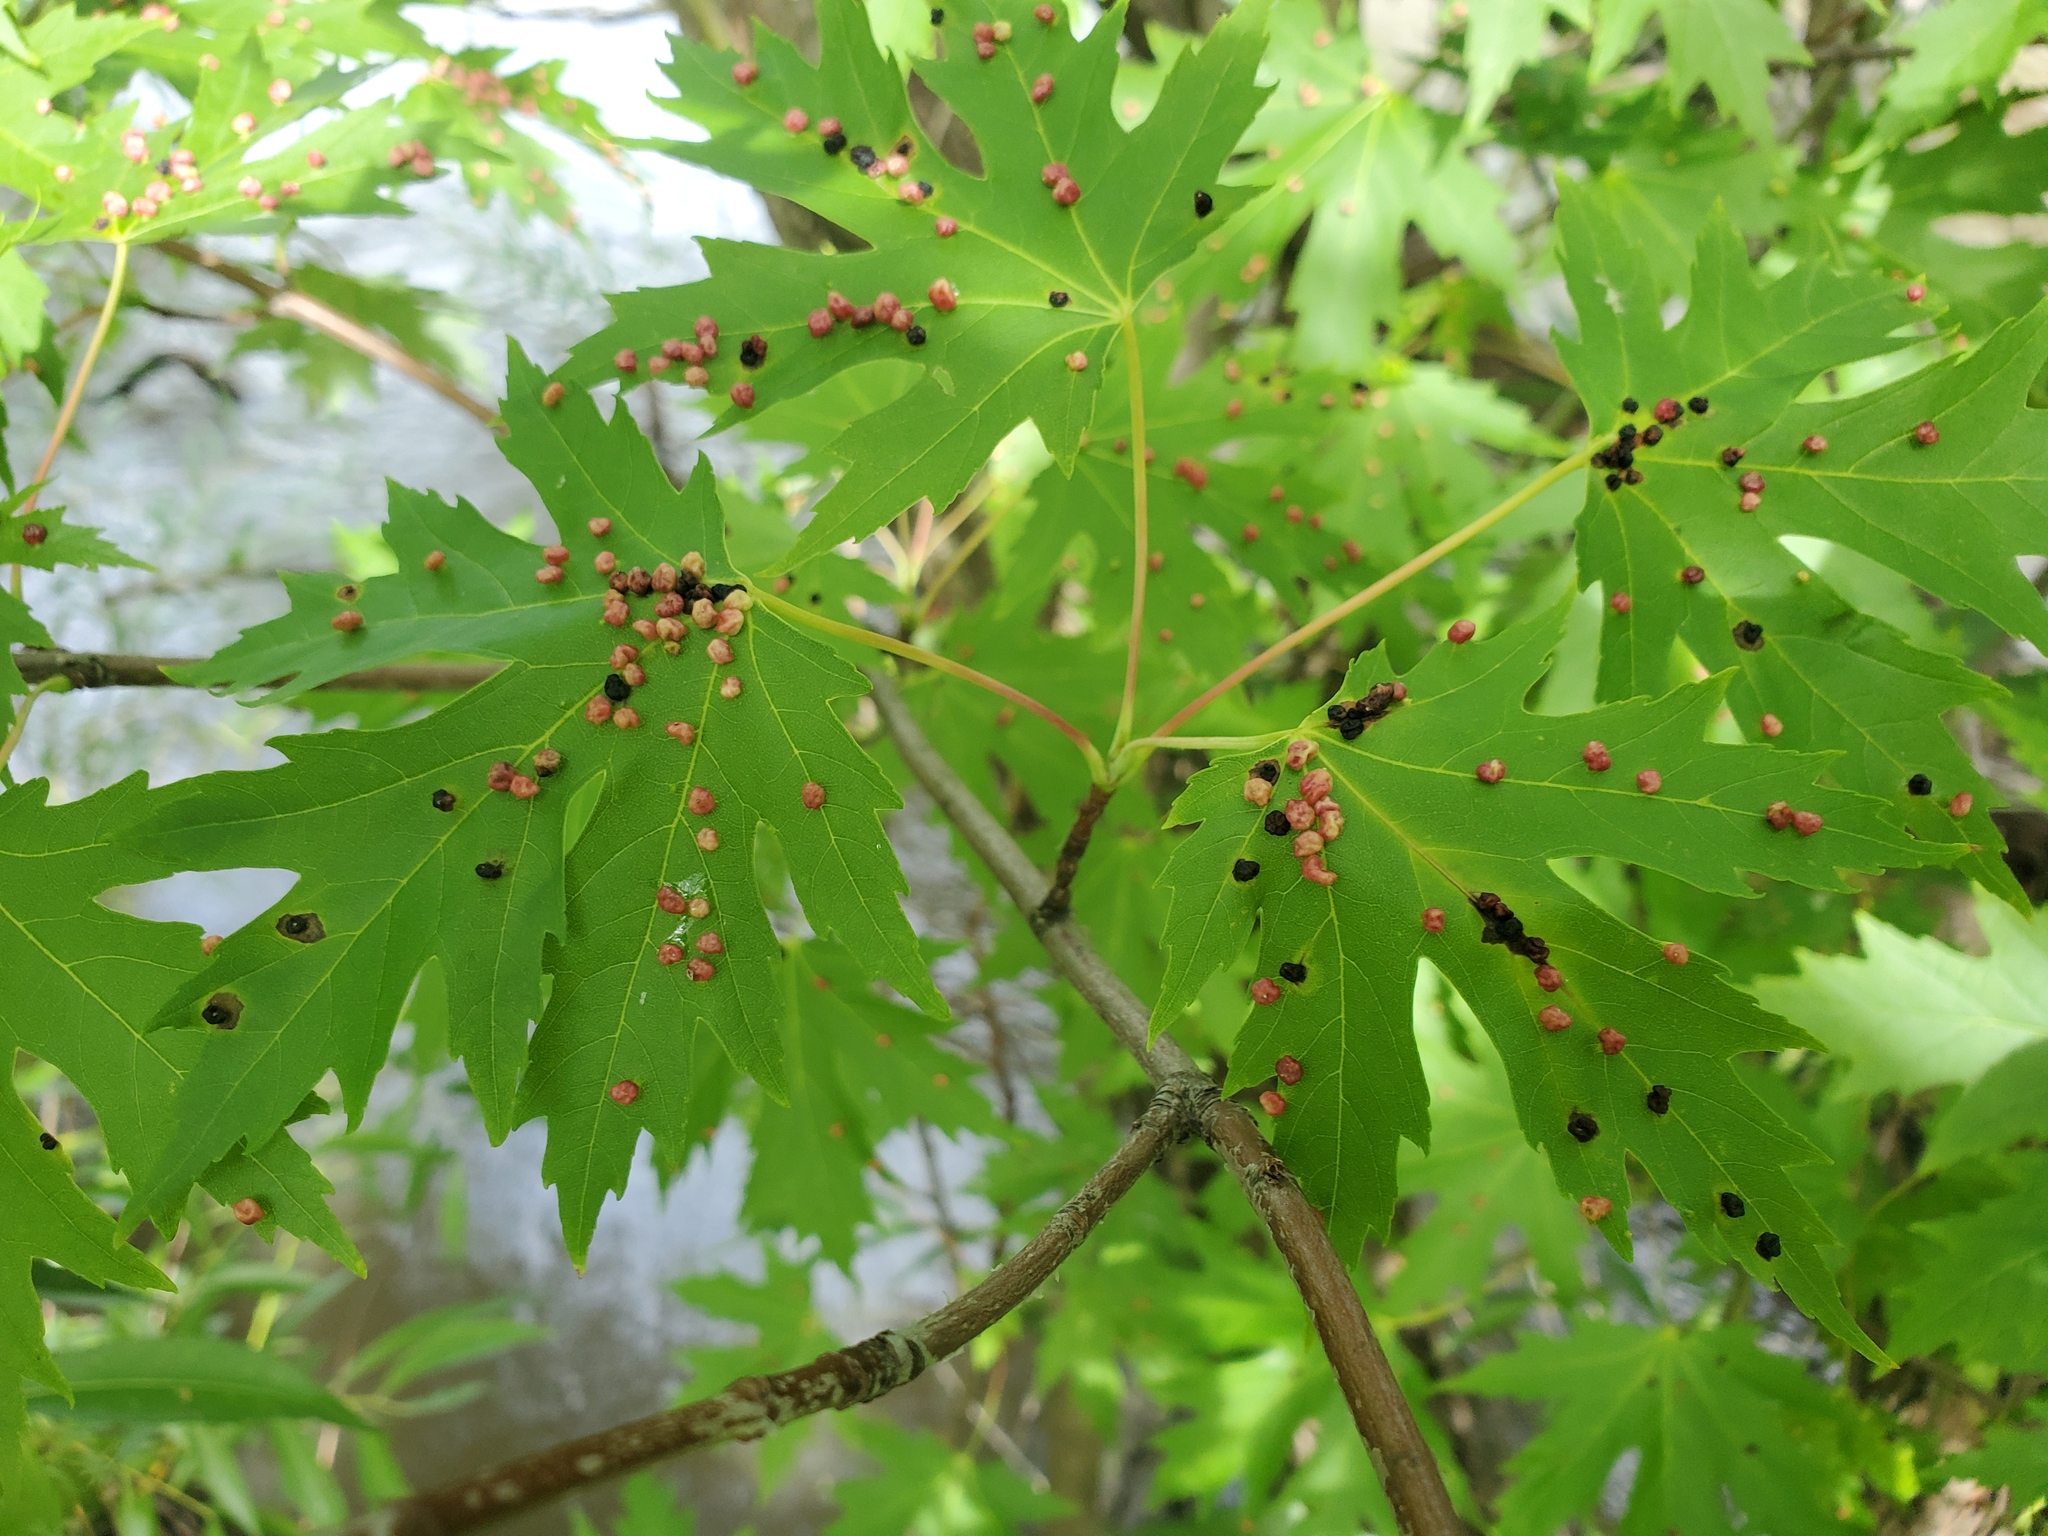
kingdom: Animalia
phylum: Arthropoda
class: Arachnida
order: Trombidiformes
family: Eriophyidae
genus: Vasates
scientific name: Vasates quadripedes
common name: Maple bladder gall mite
